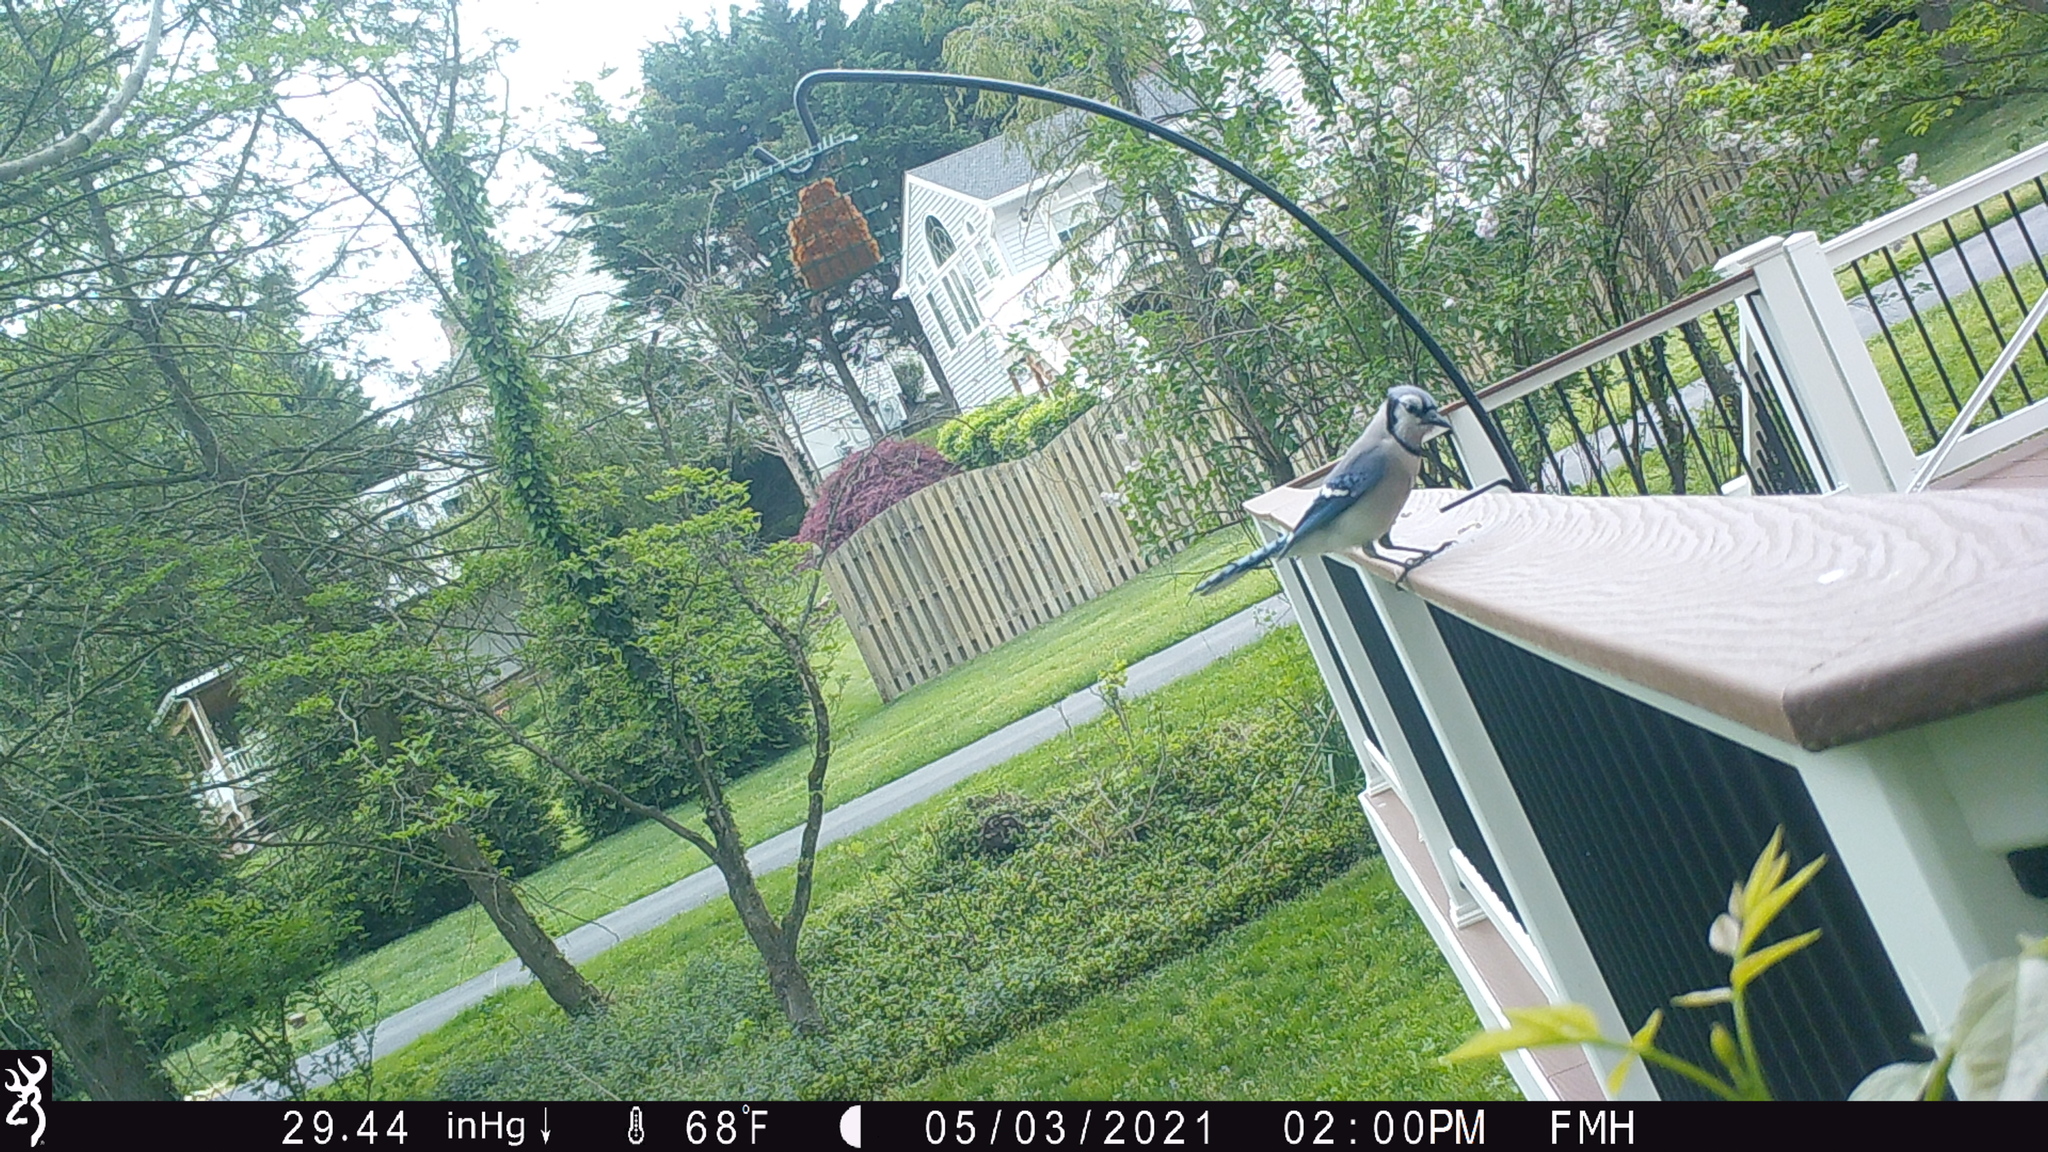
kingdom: Animalia
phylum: Chordata
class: Aves
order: Passeriformes
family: Corvidae
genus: Cyanocitta
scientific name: Cyanocitta cristata
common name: Blue jay
